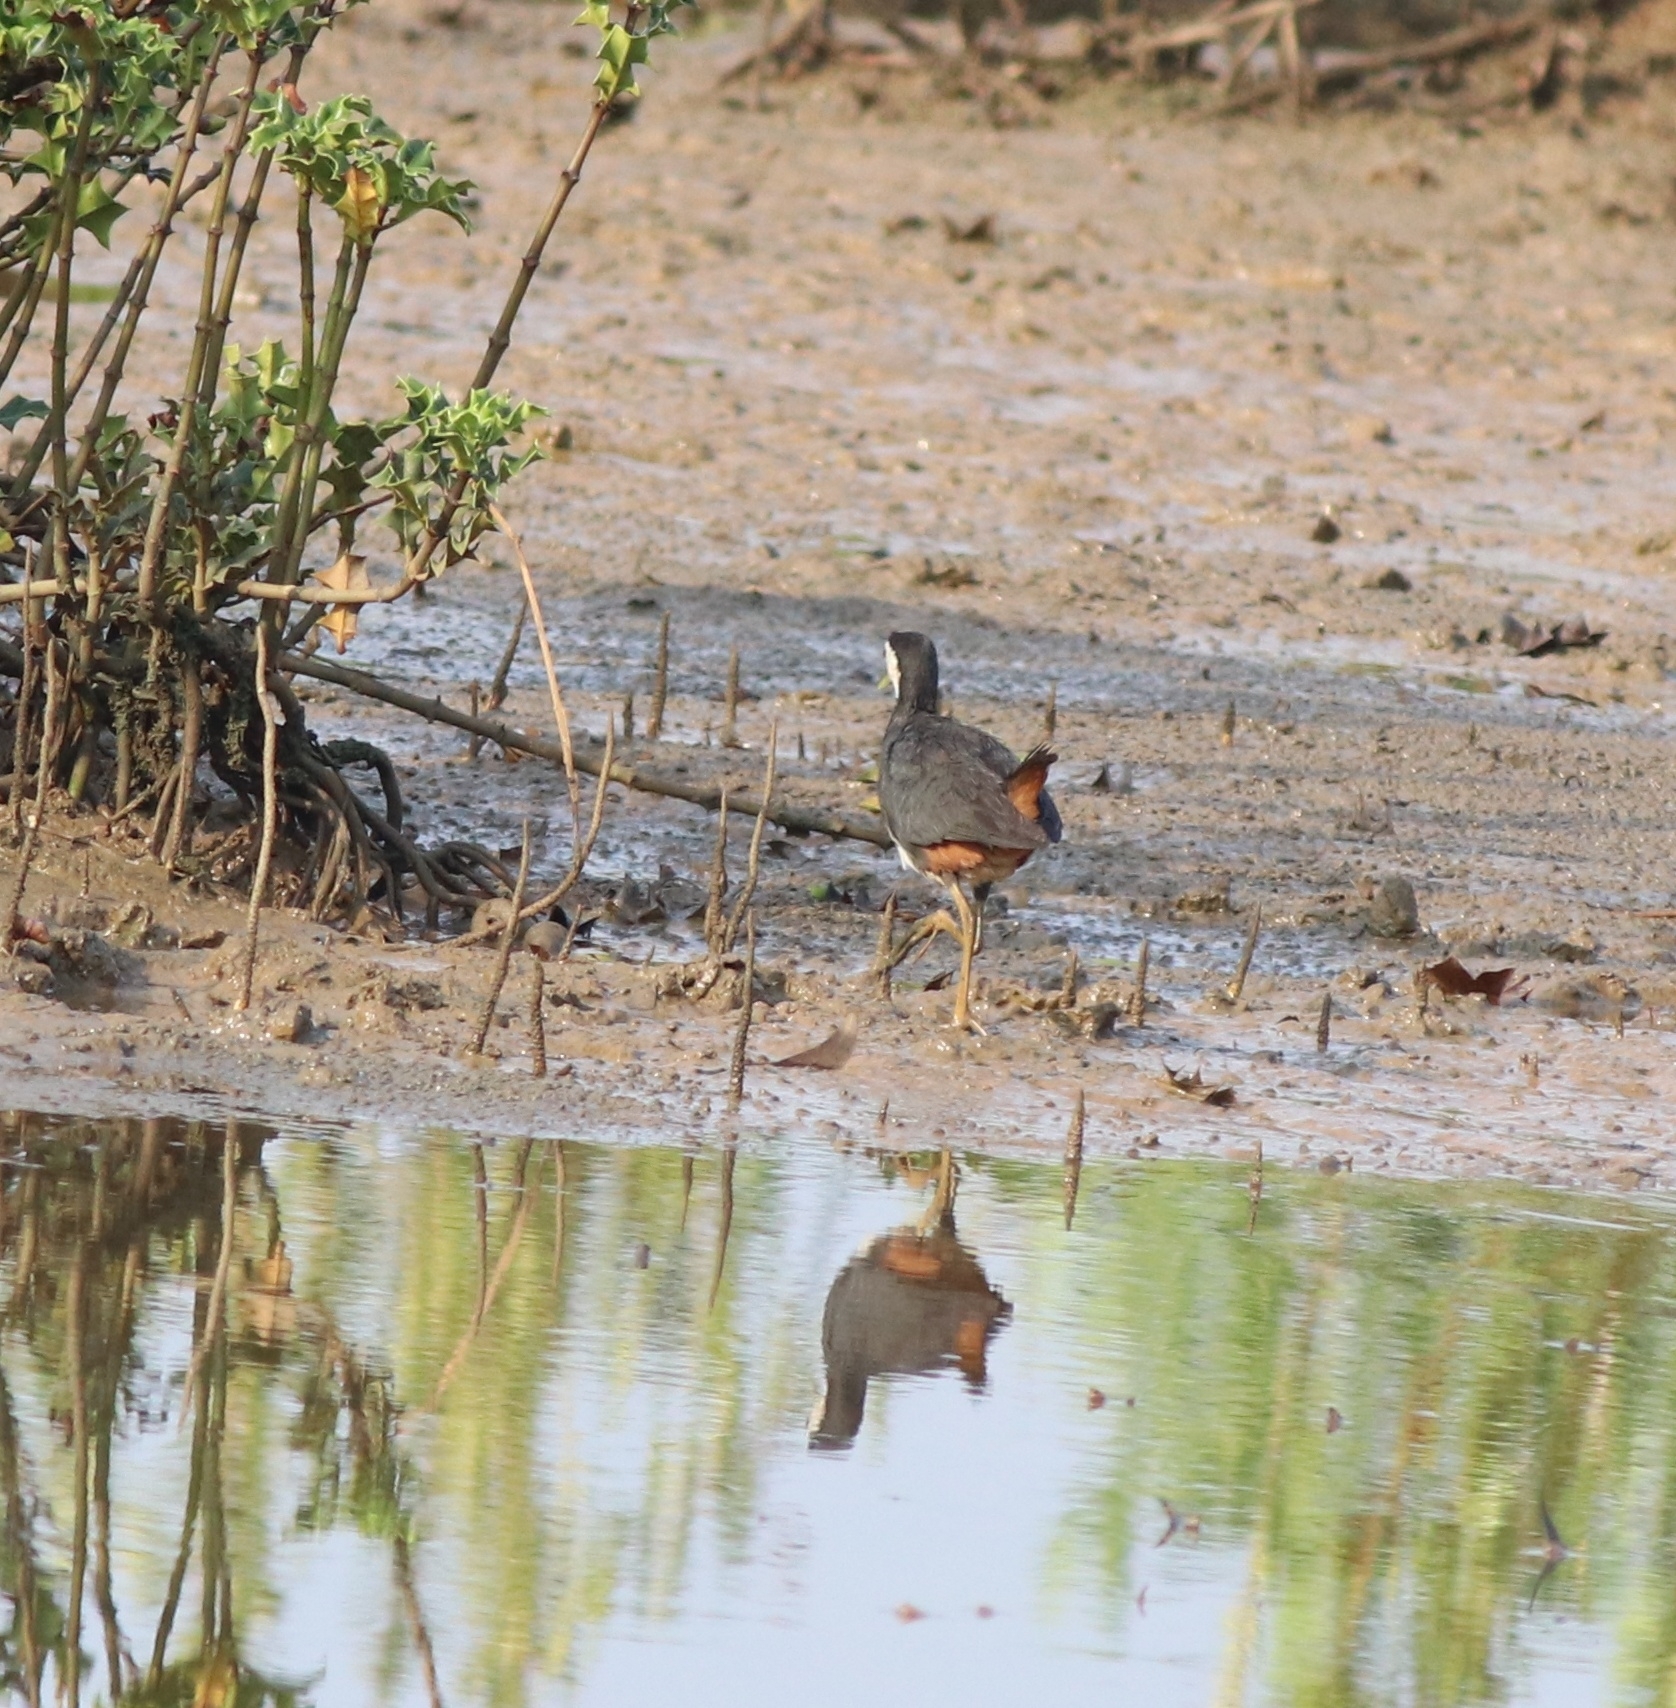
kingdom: Animalia
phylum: Chordata
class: Aves
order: Gruiformes
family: Rallidae
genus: Amaurornis
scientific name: Amaurornis phoenicurus
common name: White-breasted waterhen
